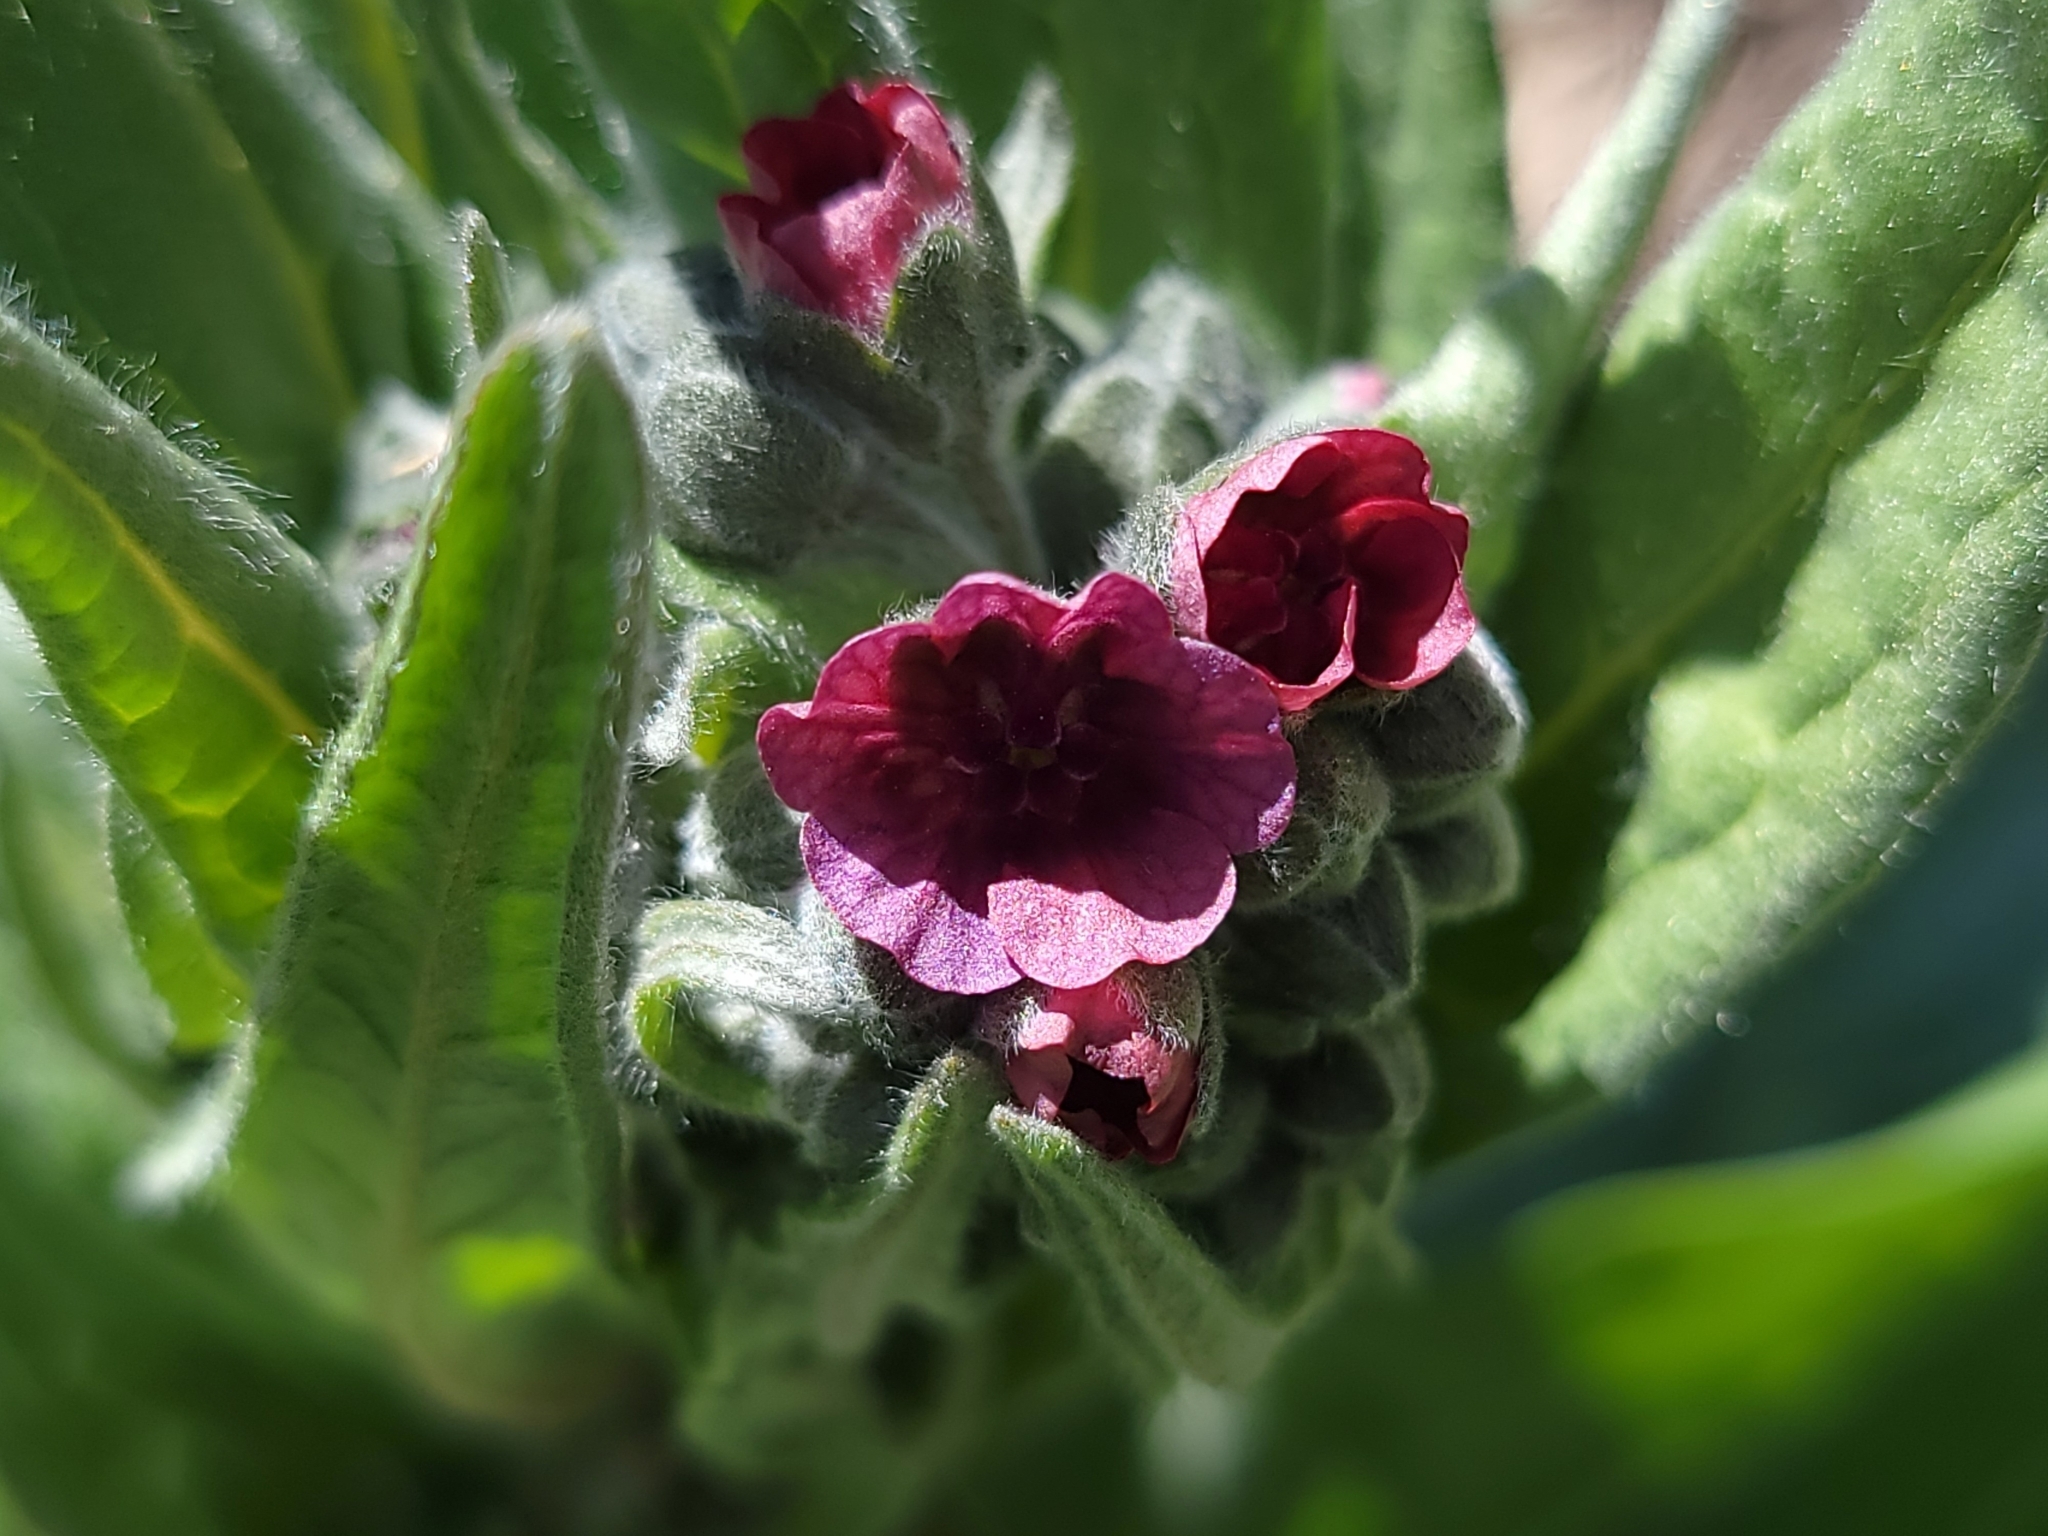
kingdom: Plantae
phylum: Tracheophyta
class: Magnoliopsida
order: Boraginales
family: Boraginaceae
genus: Cynoglossum
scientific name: Cynoglossum officinale
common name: Hound's-tongue
